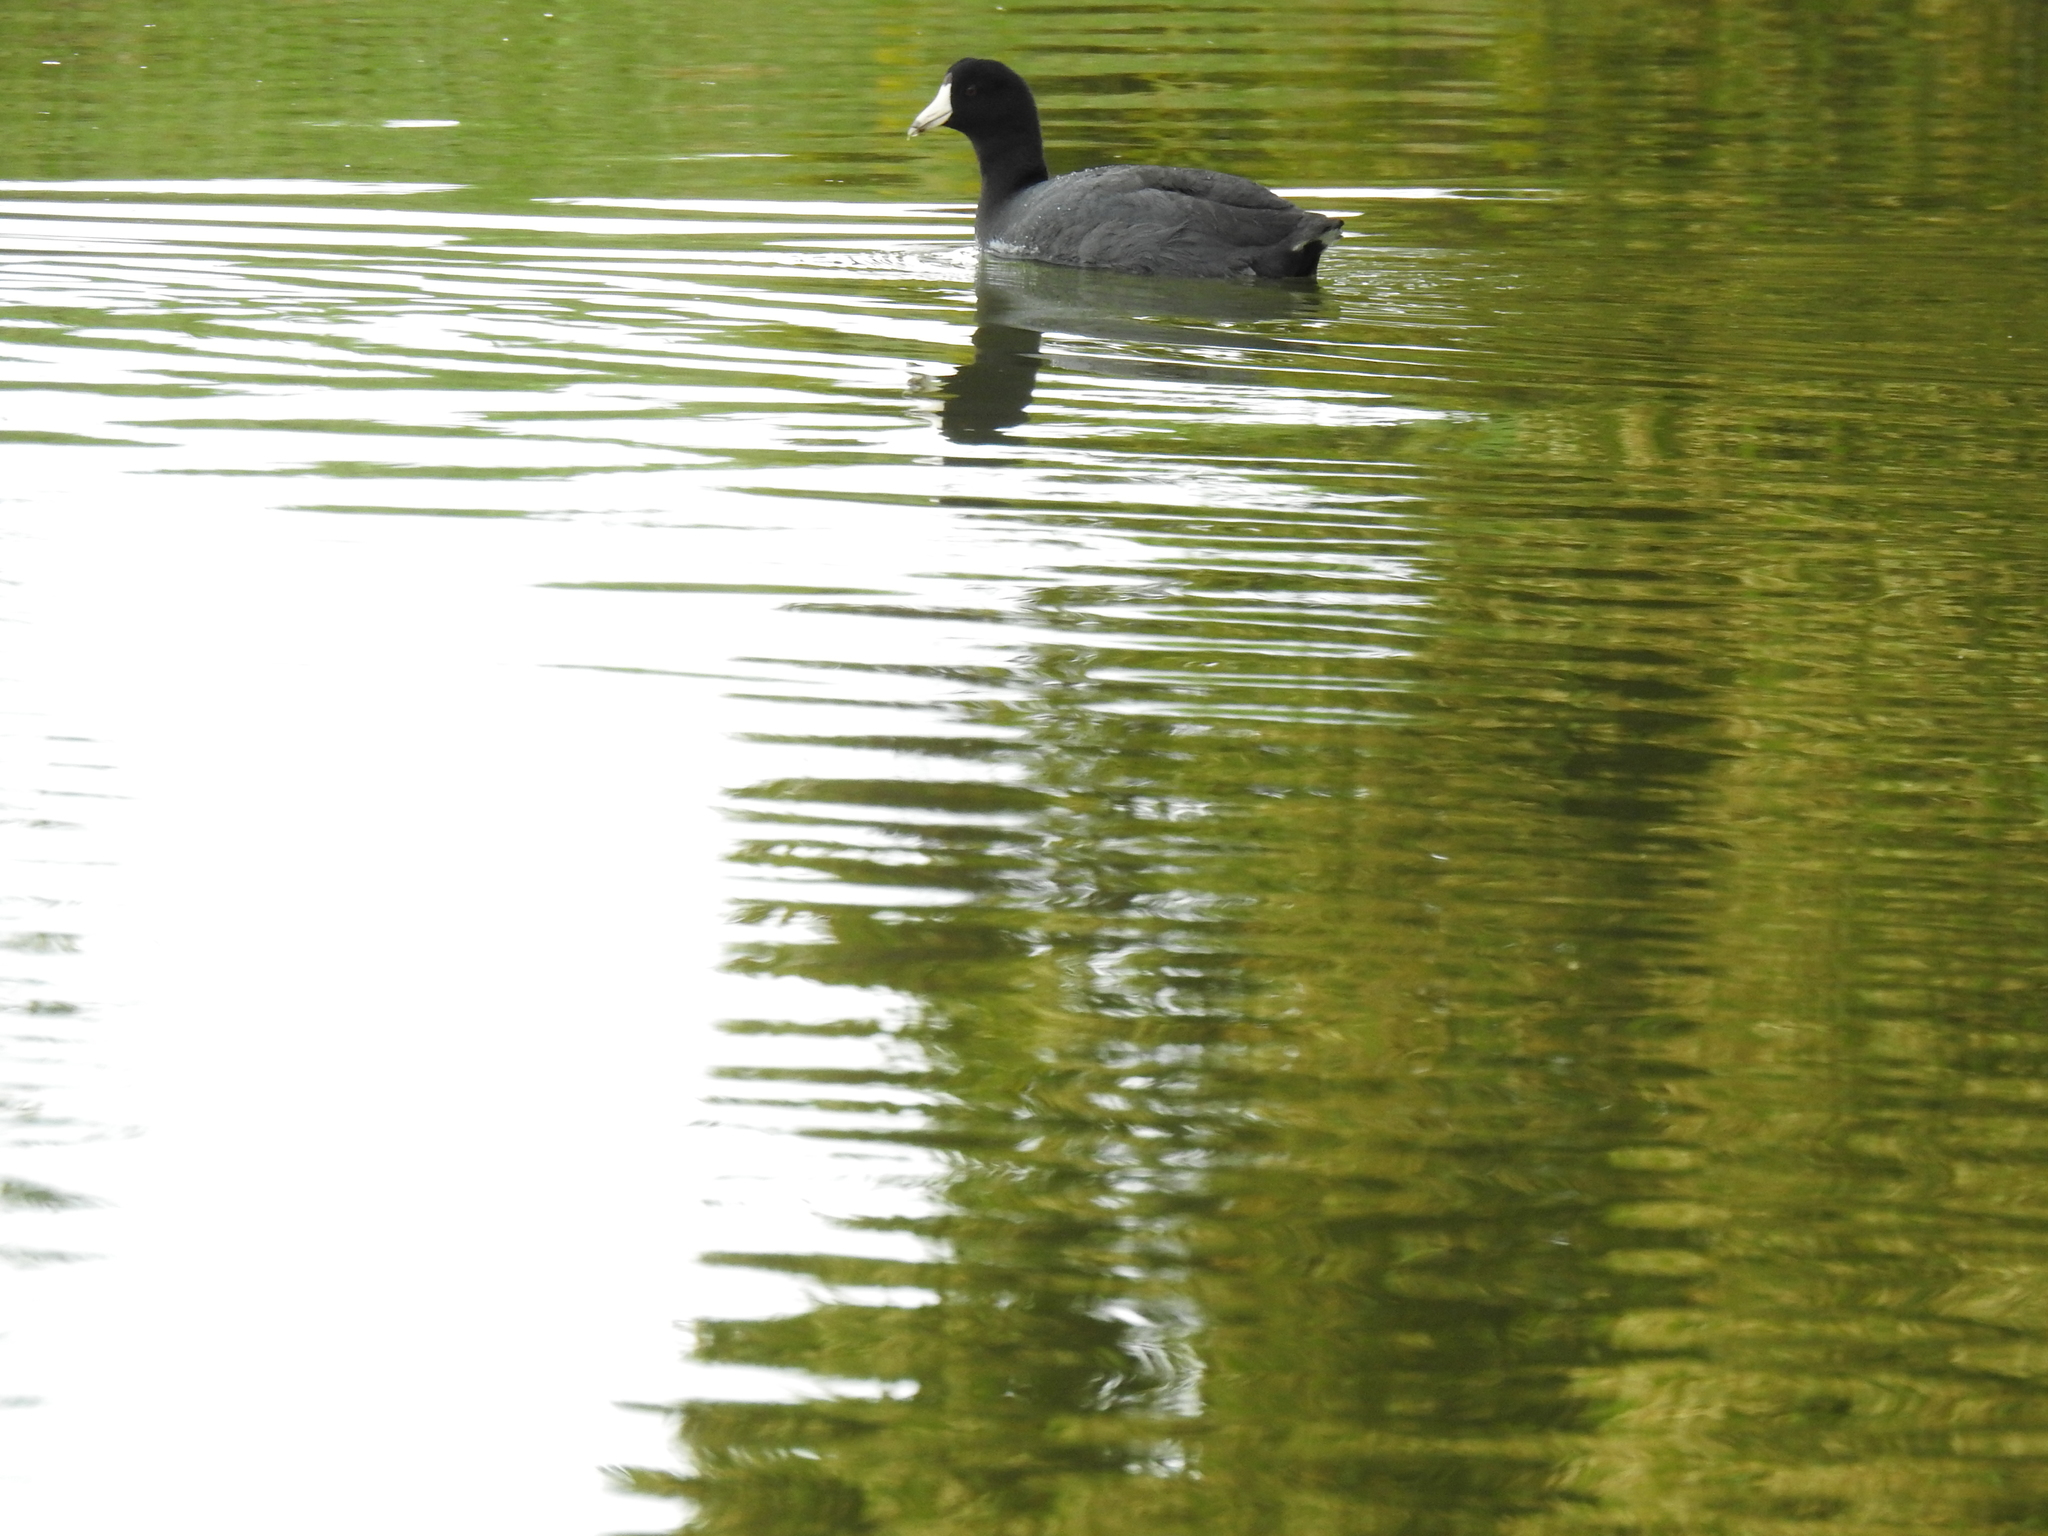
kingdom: Animalia
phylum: Chordata
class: Aves
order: Gruiformes
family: Rallidae
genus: Fulica
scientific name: Fulica americana
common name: American coot
